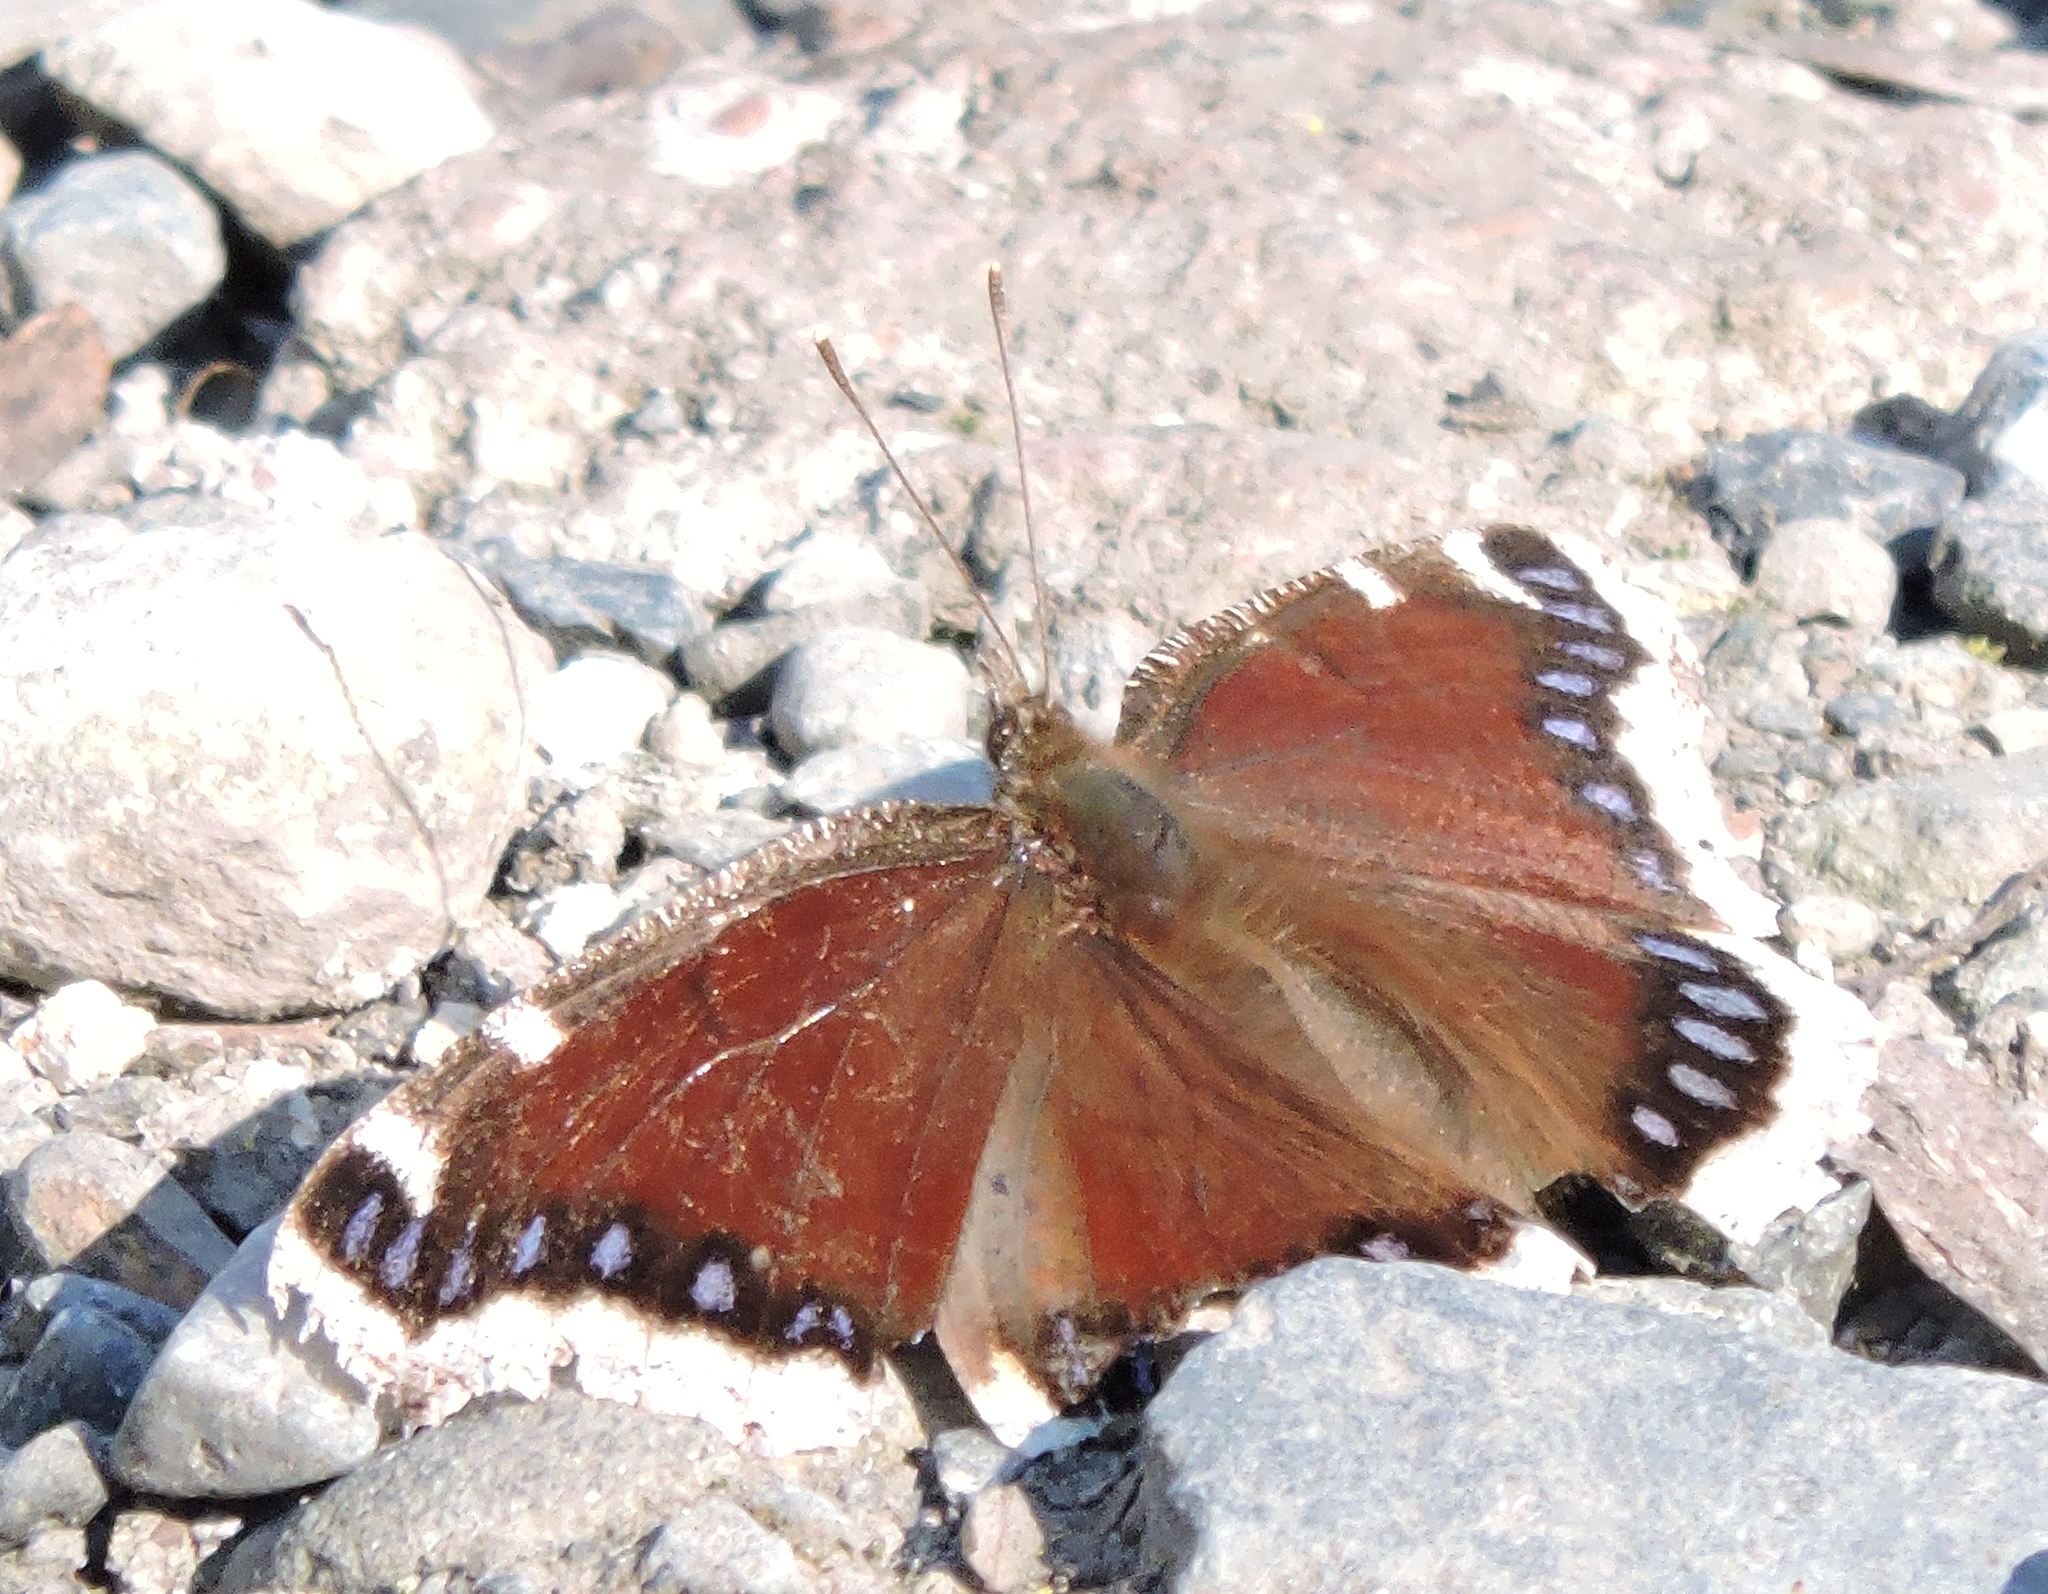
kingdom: Animalia
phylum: Arthropoda
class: Insecta
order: Lepidoptera
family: Nymphalidae
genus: Nymphalis
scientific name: Nymphalis antiopa
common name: Camberwell beauty
